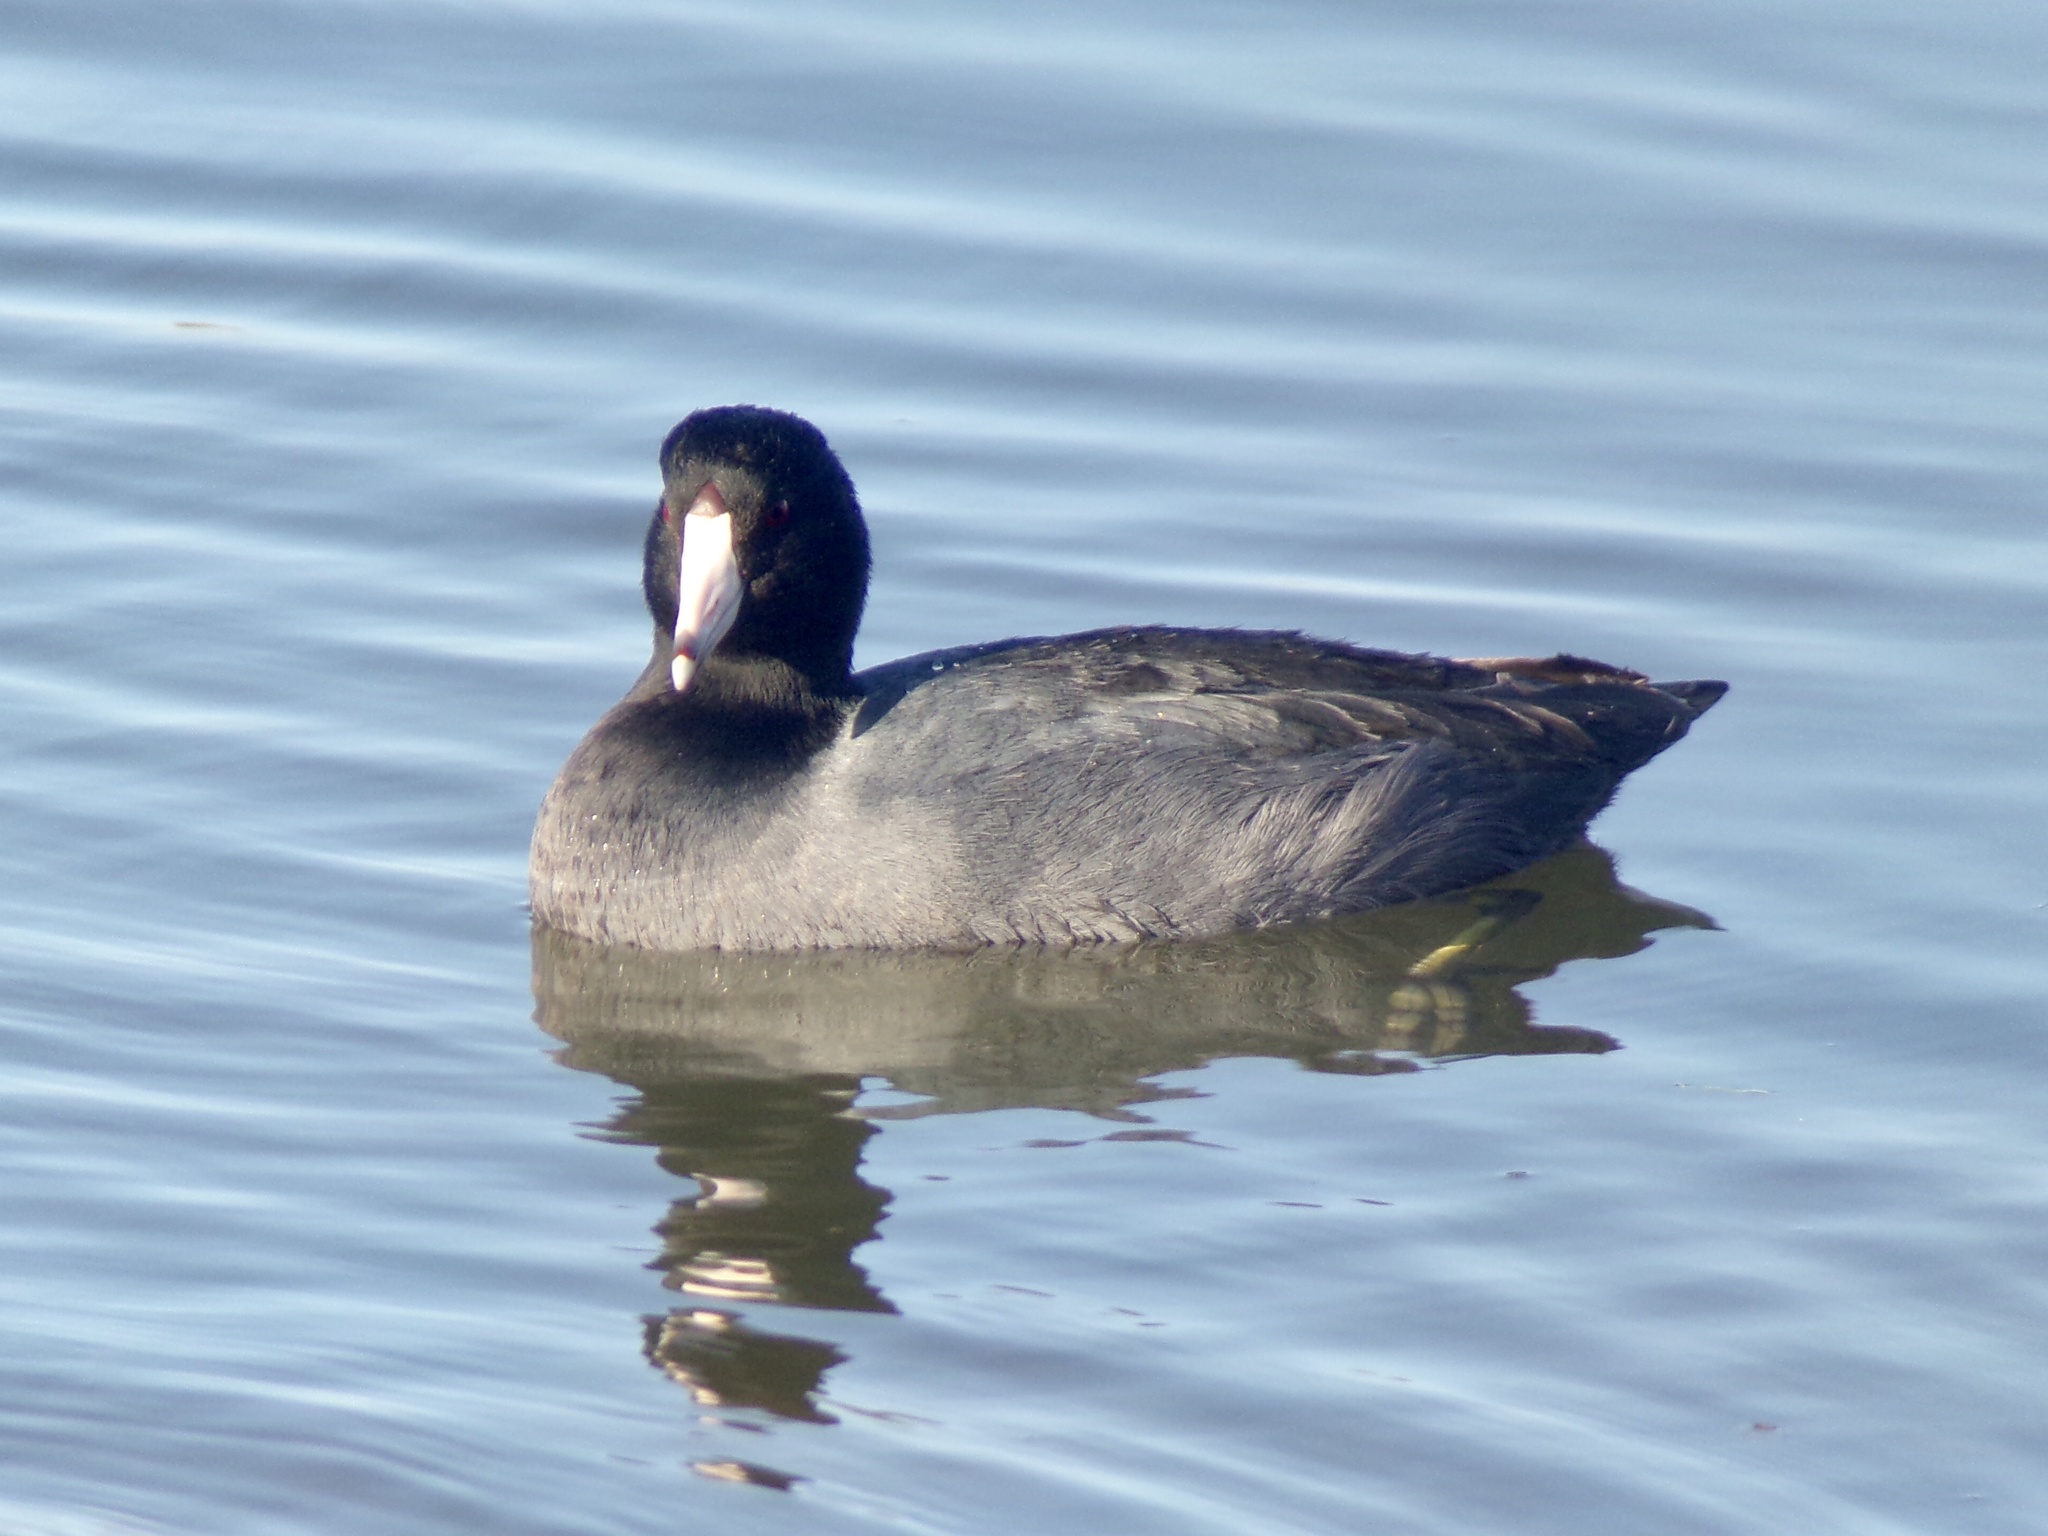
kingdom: Animalia
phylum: Chordata
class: Aves
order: Gruiformes
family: Rallidae
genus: Fulica
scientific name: Fulica americana
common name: American coot
